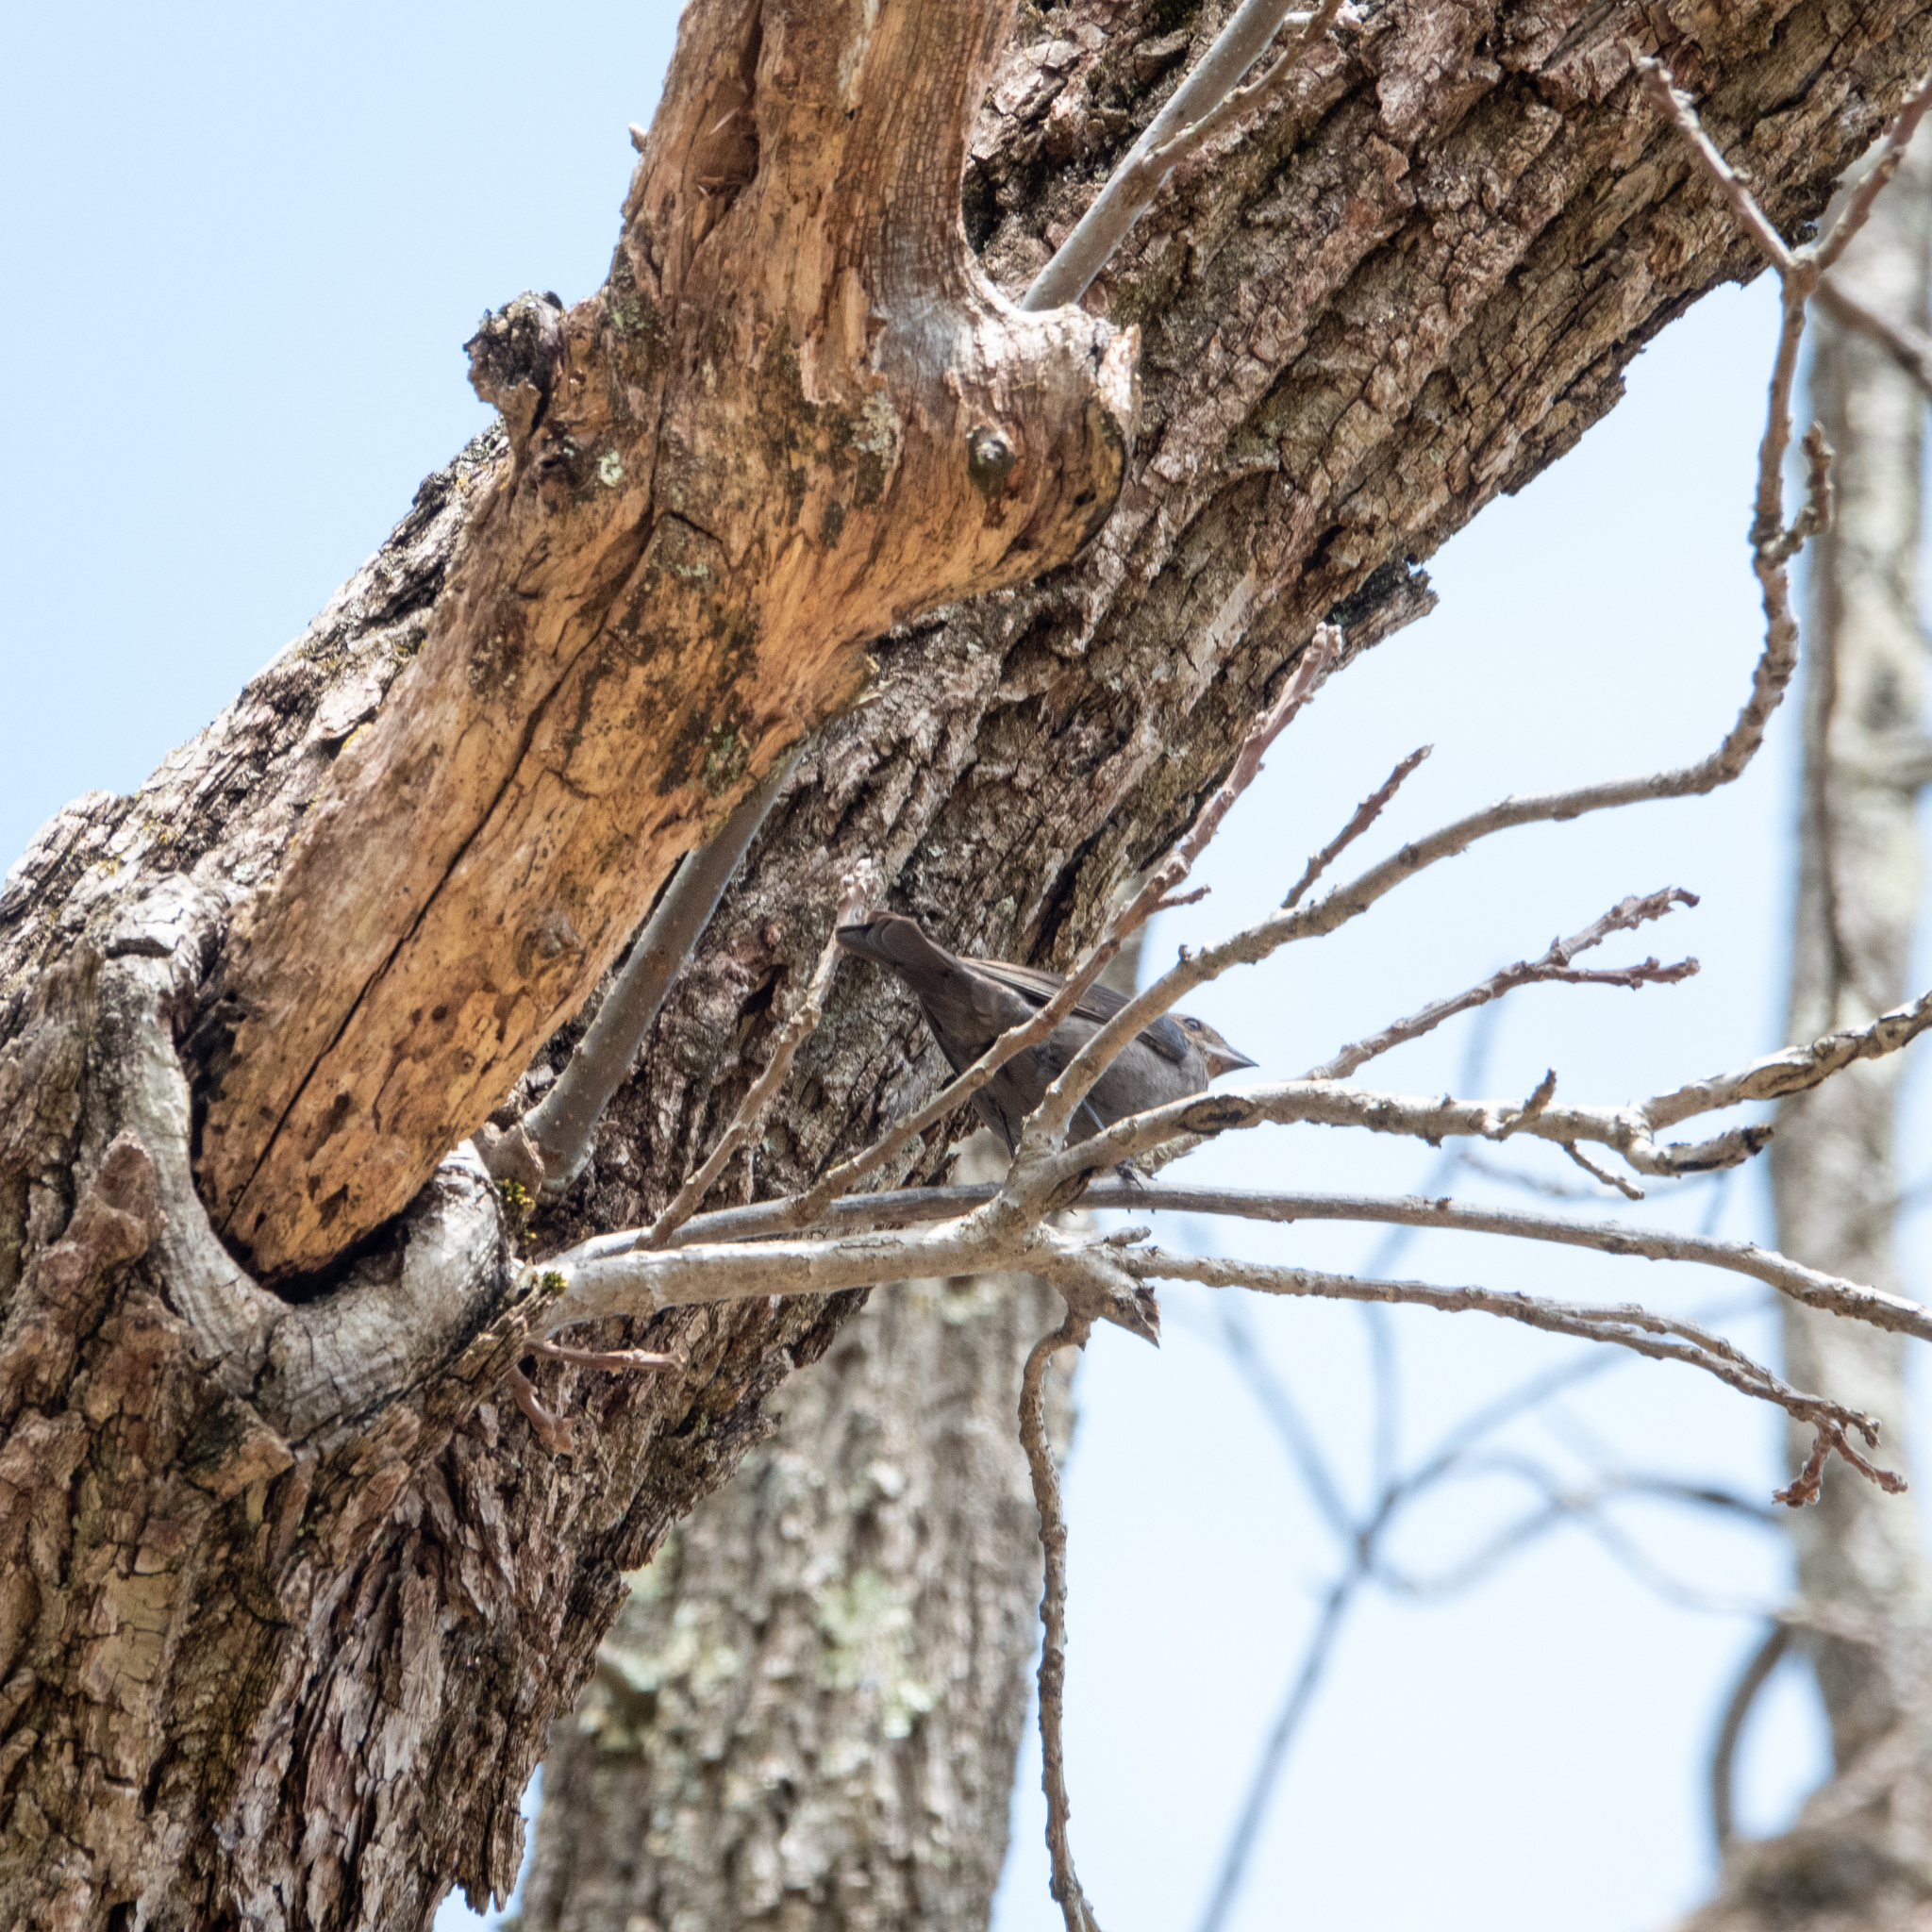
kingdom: Animalia
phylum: Chordata
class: Aves
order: Passeriformes
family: Icteridae
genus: Molothrus
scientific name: Molothrus ater
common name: Brown-headed cowbird
